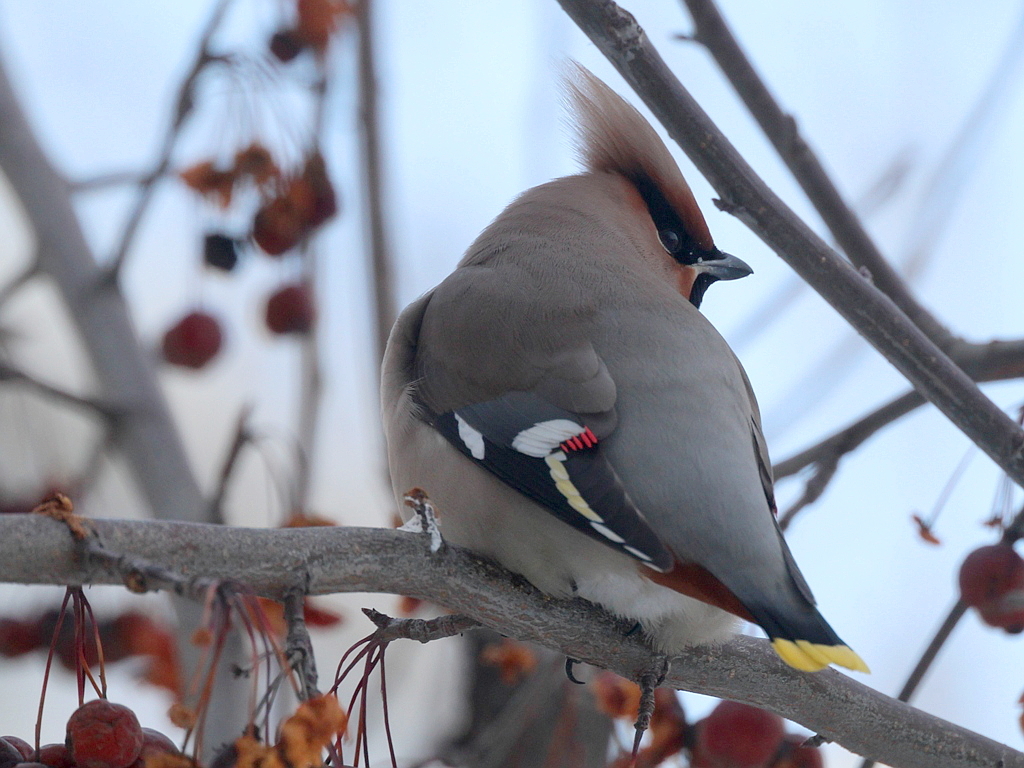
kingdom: Animalia
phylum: Chordata
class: Aves
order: Passeriformes
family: Bombycillidae
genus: Bombycilla
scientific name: Bombycilla garrulus
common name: Bohemian waxwing
